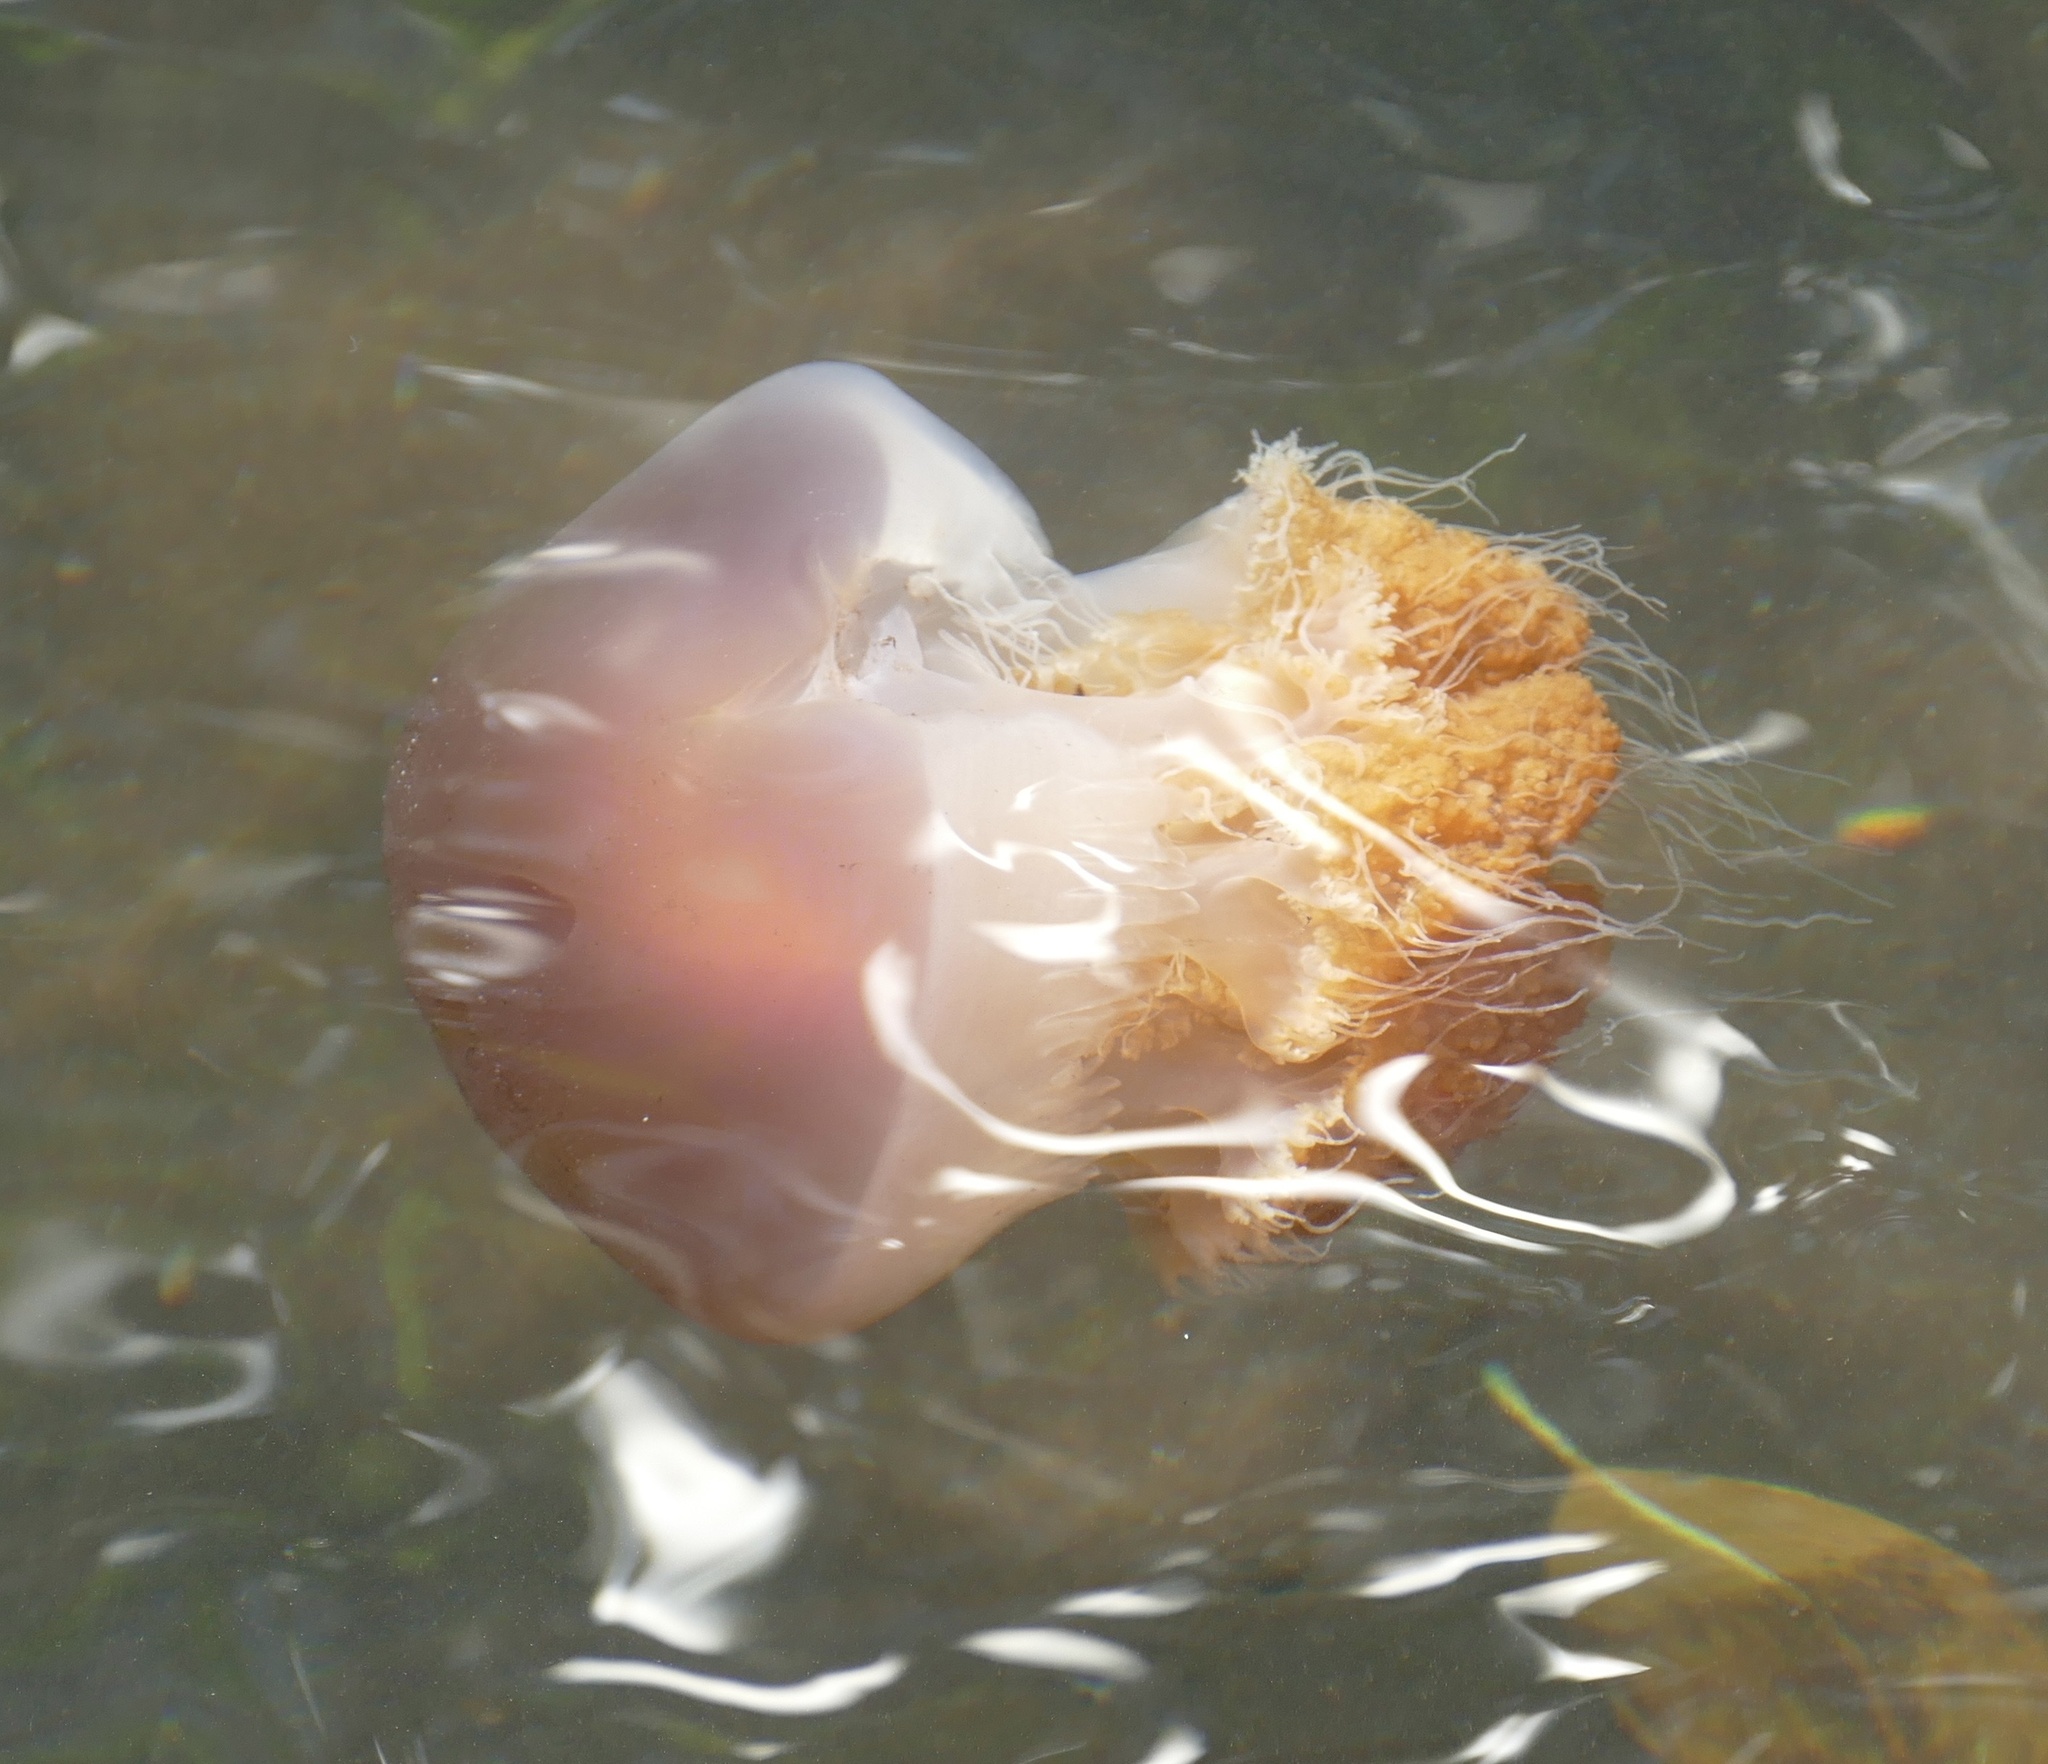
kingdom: Animalia
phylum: Cnidaria
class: Scyphozoa
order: Rhizostomeae
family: Catostylidae
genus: Crambione
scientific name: Crambione mastigophora
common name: Tomato jellyfish
